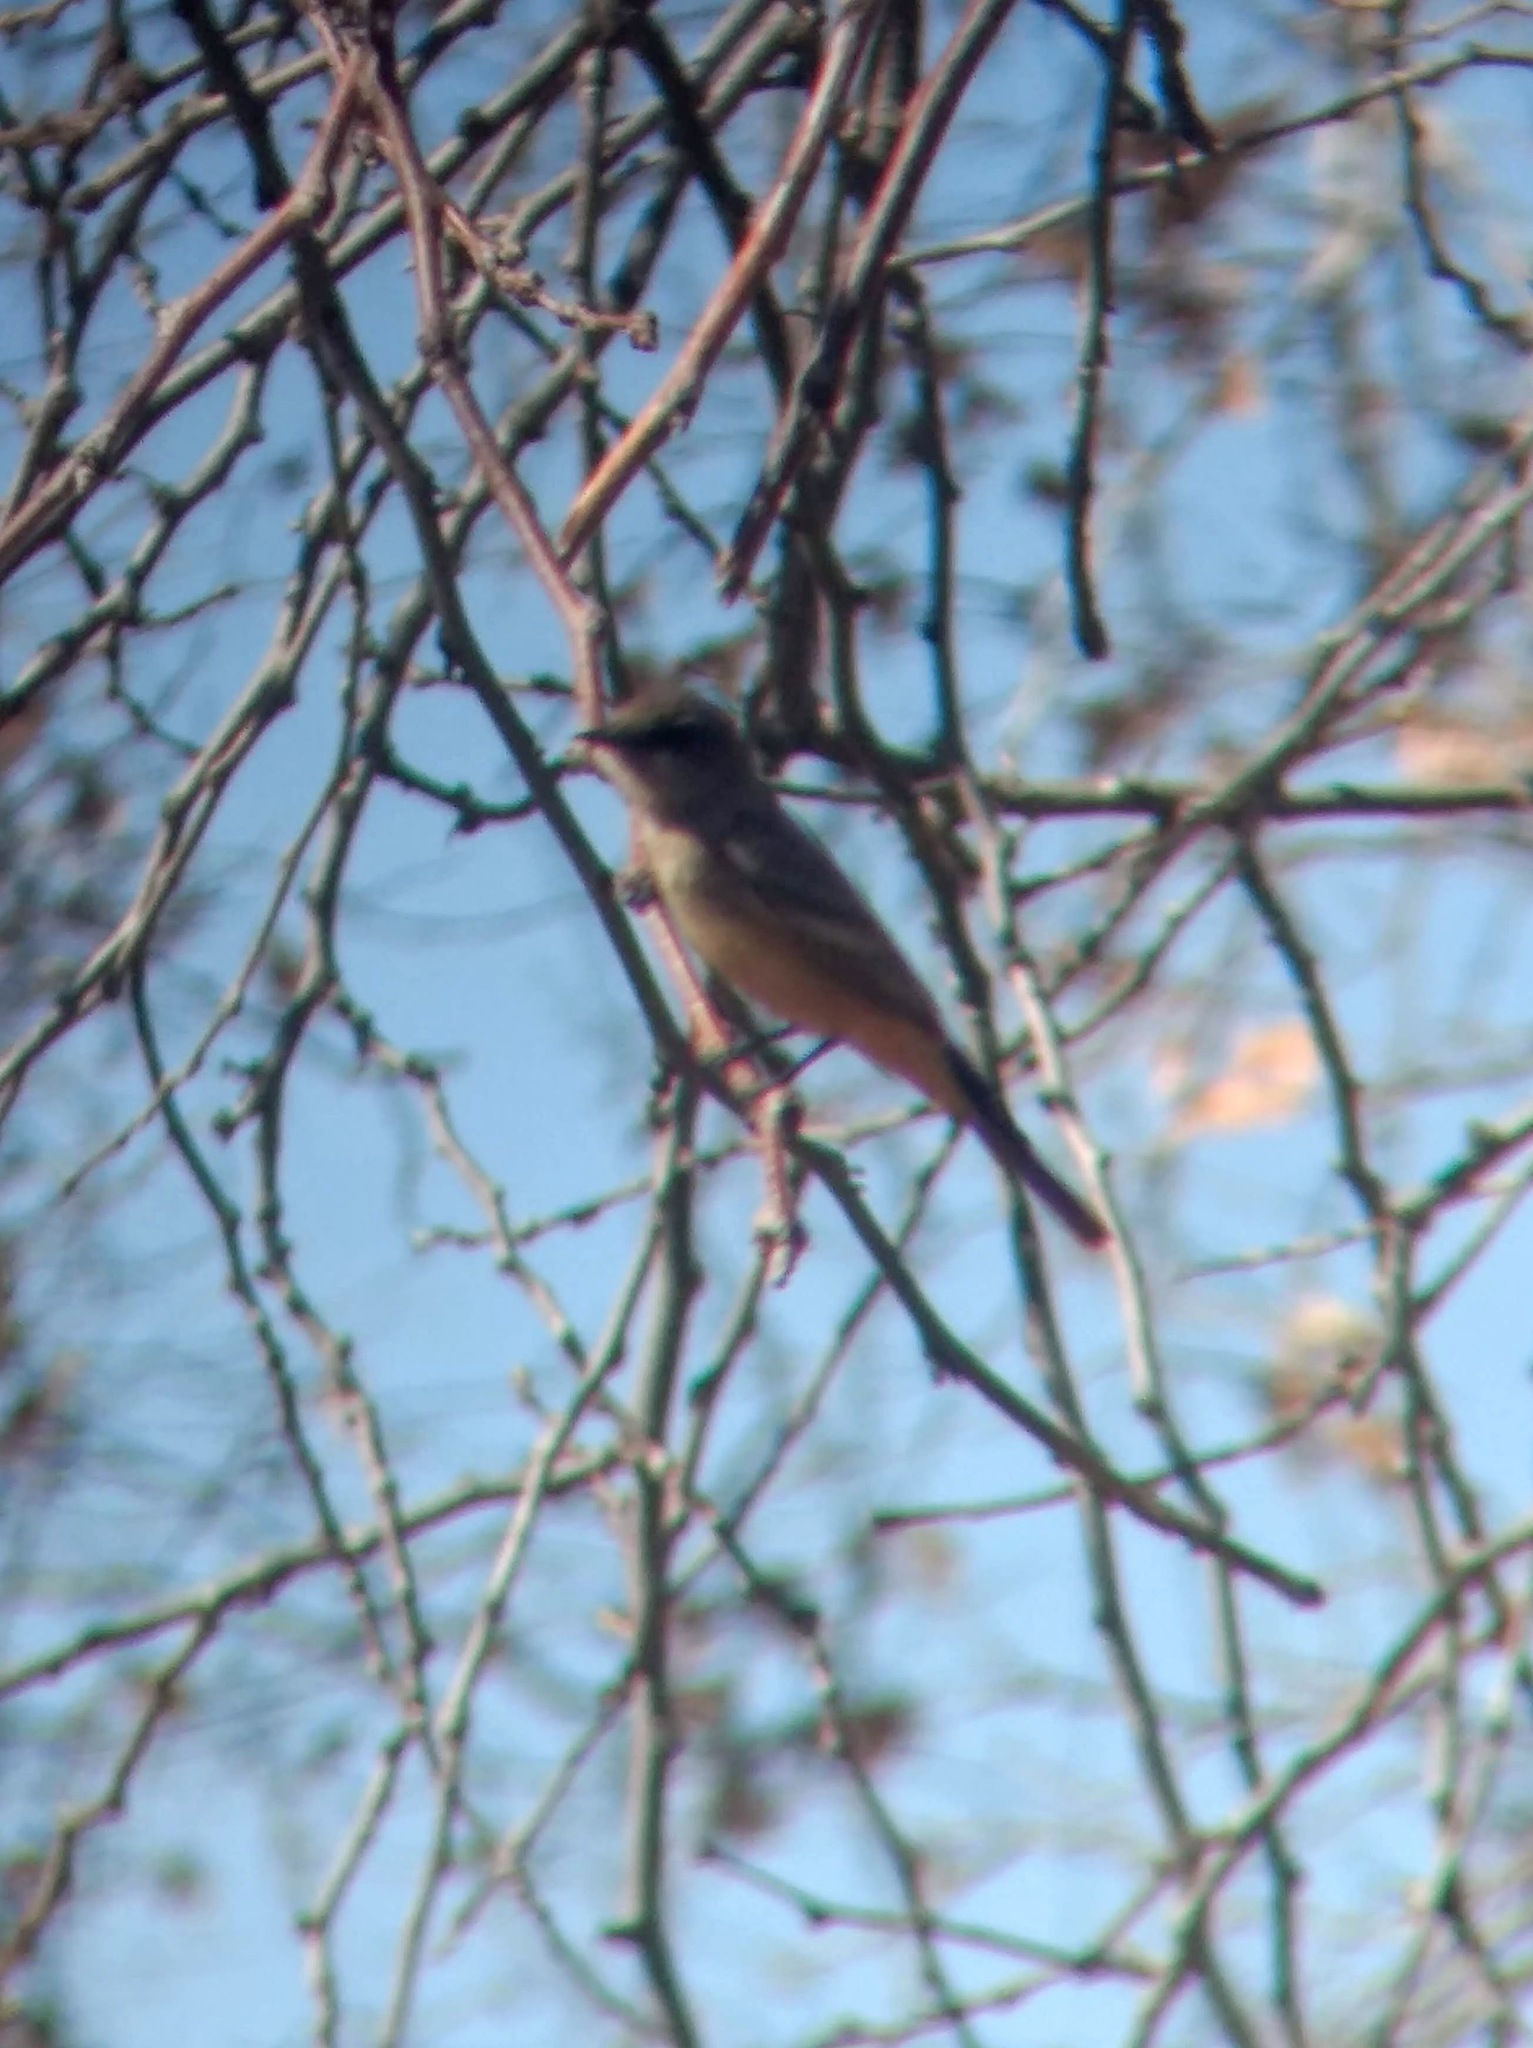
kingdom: Animalia
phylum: Chordata
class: Aves
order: Passeriformes
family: Tyrannidae
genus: Sayornis
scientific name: Sayornis saya
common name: Say's phoebe
